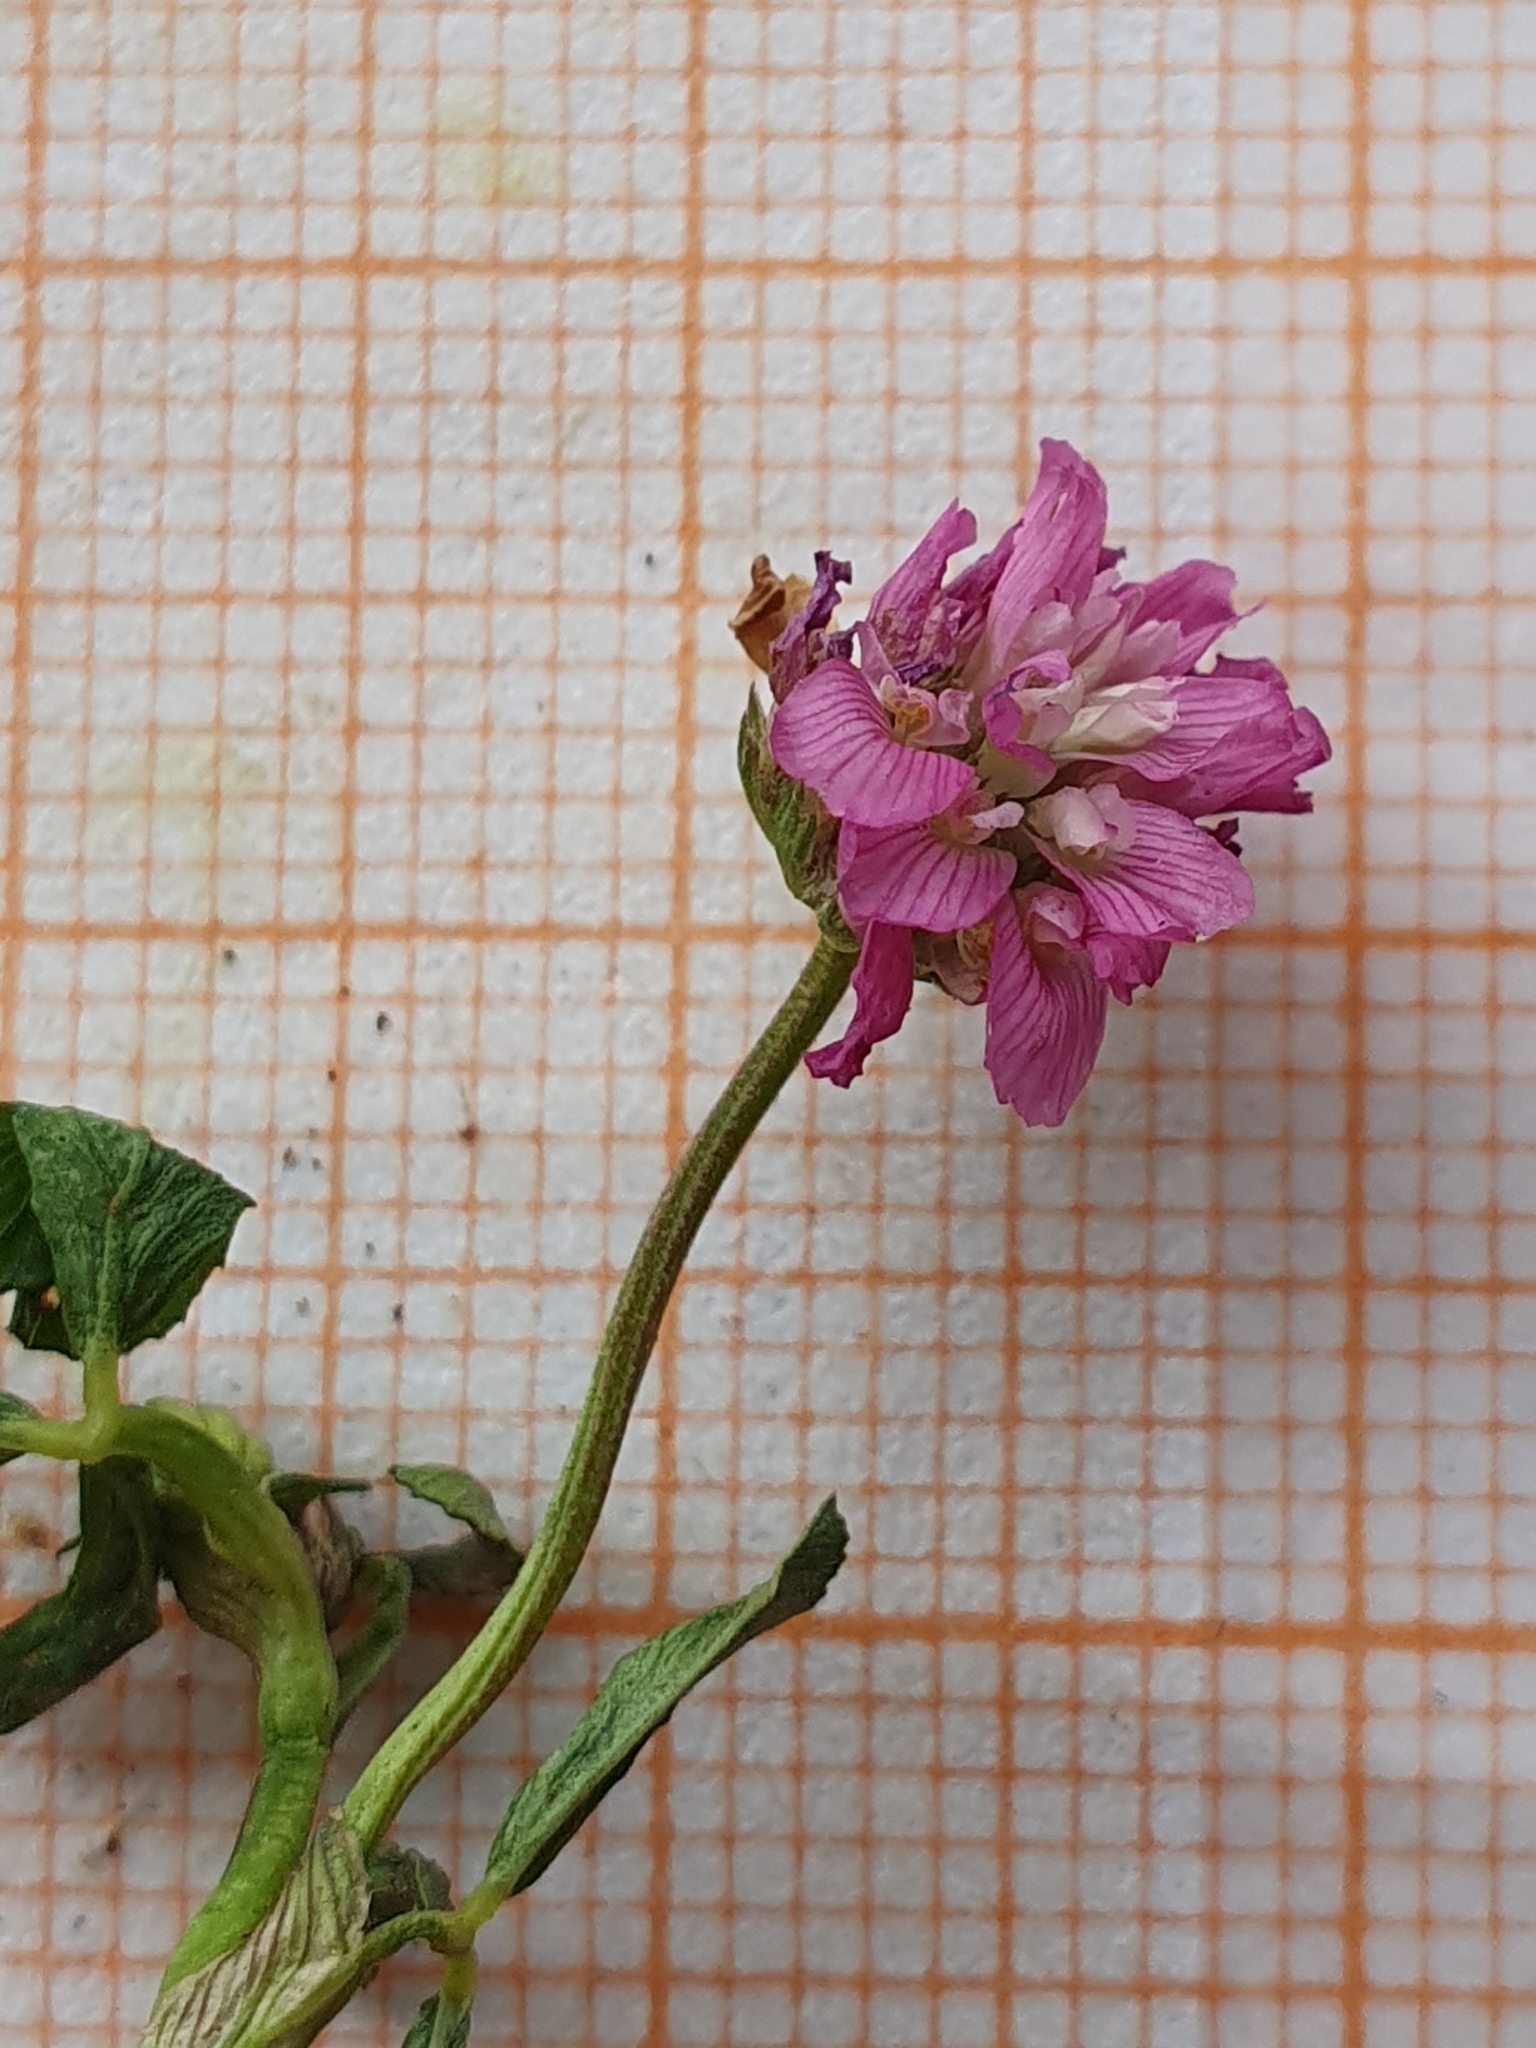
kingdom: Plantae
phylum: Tracheophyta
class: Magnoliopsida
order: Fabales
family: Fabaceae
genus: Trifolium
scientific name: Trifolium resupinatum
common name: Reversed clover
